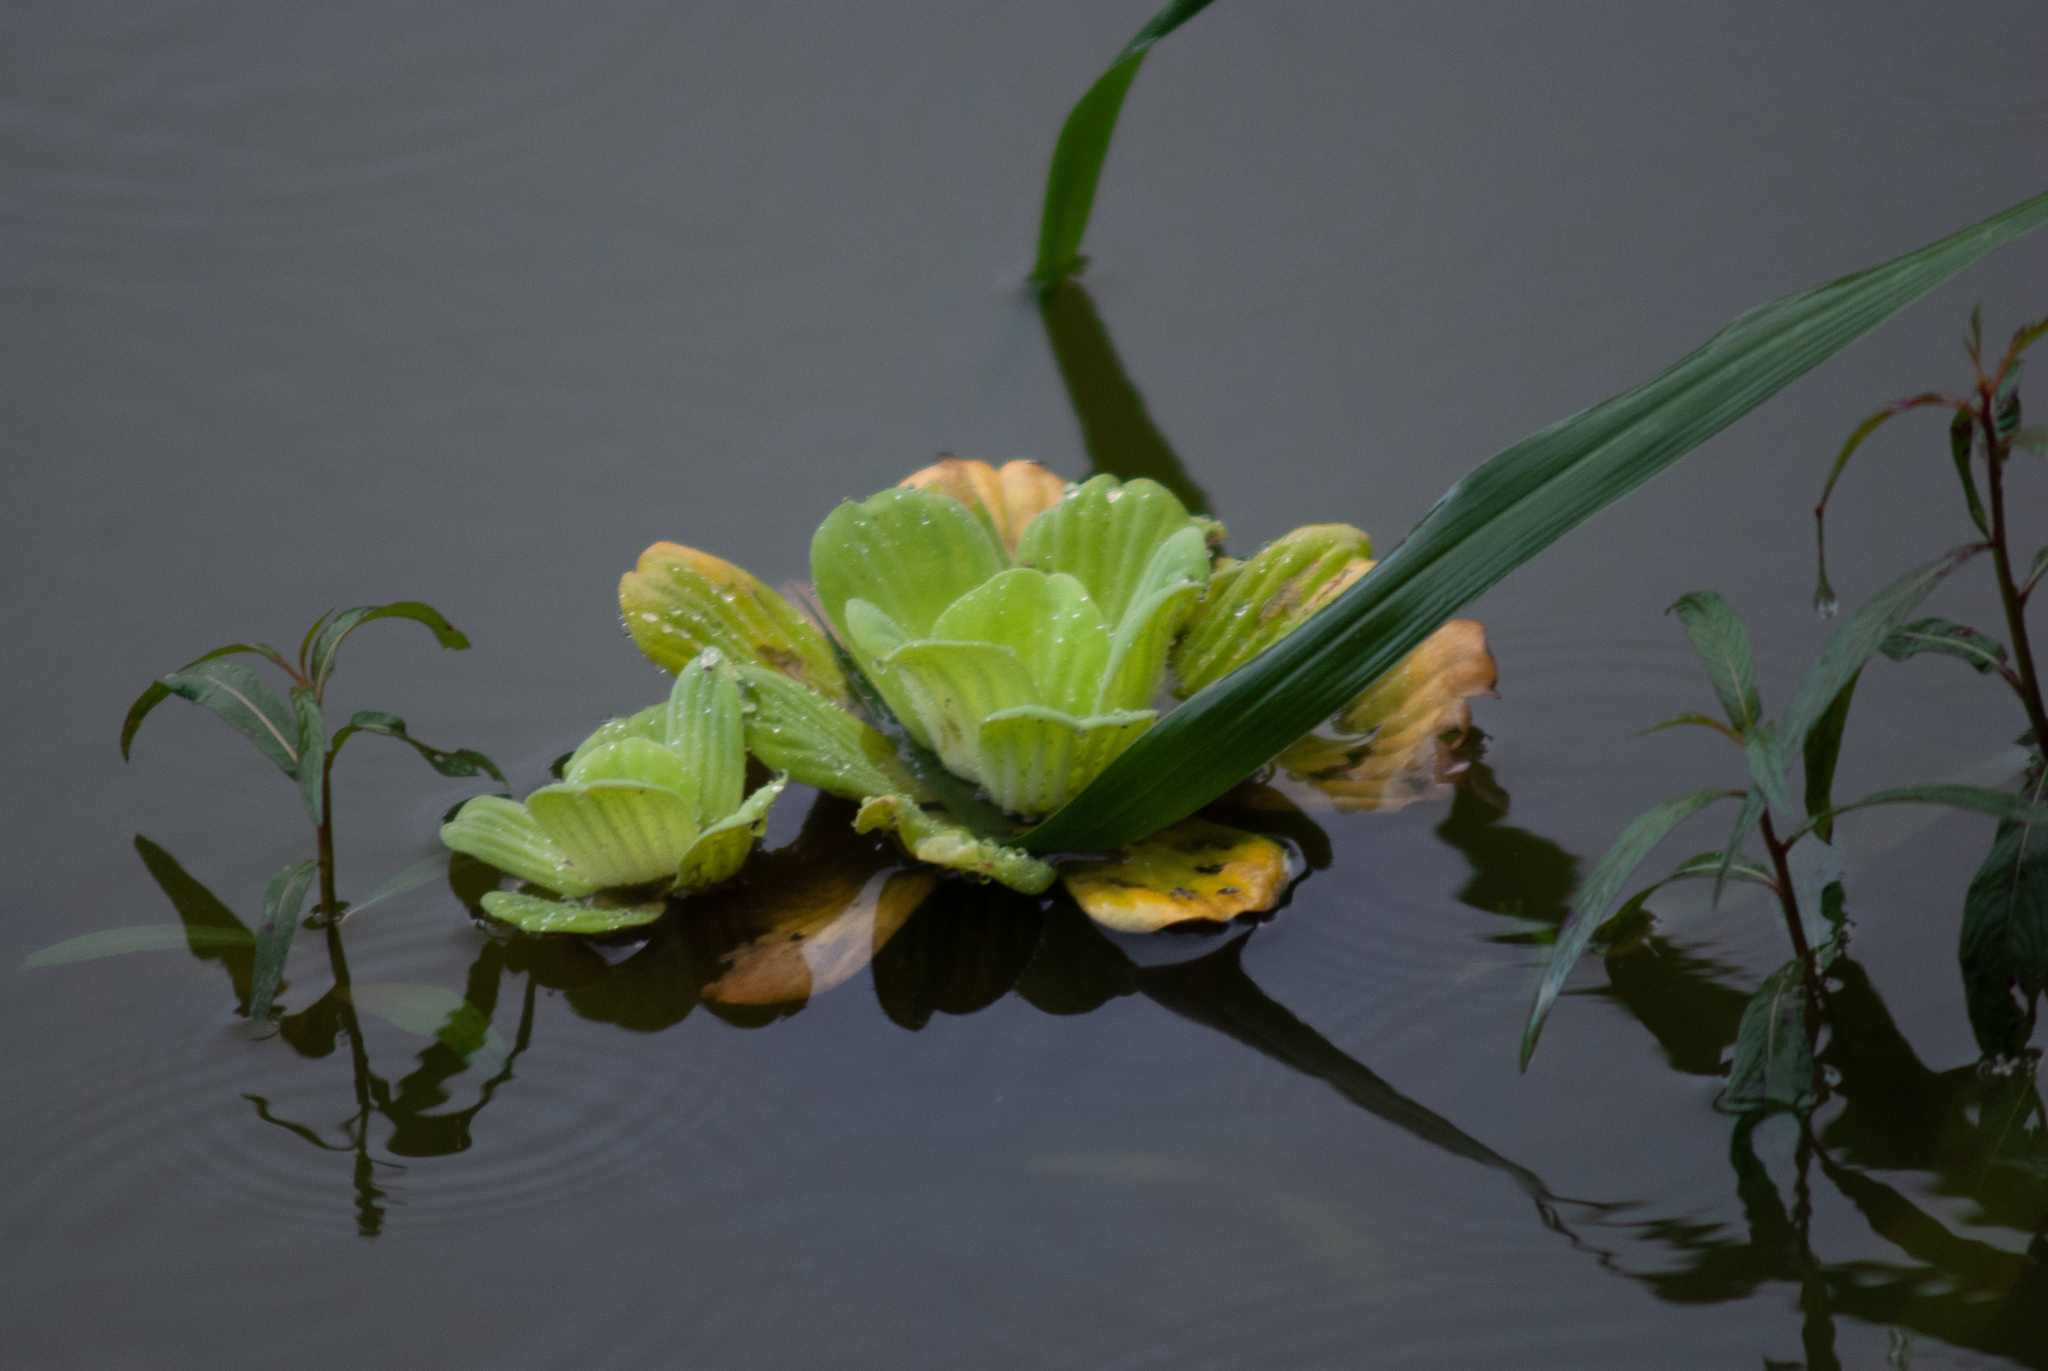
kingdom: Plantae
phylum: Tracheophyta
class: Liliopsida
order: Alismatales
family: Araceae
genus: Pistia
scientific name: Pistia stratiotes
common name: Water lettuce
